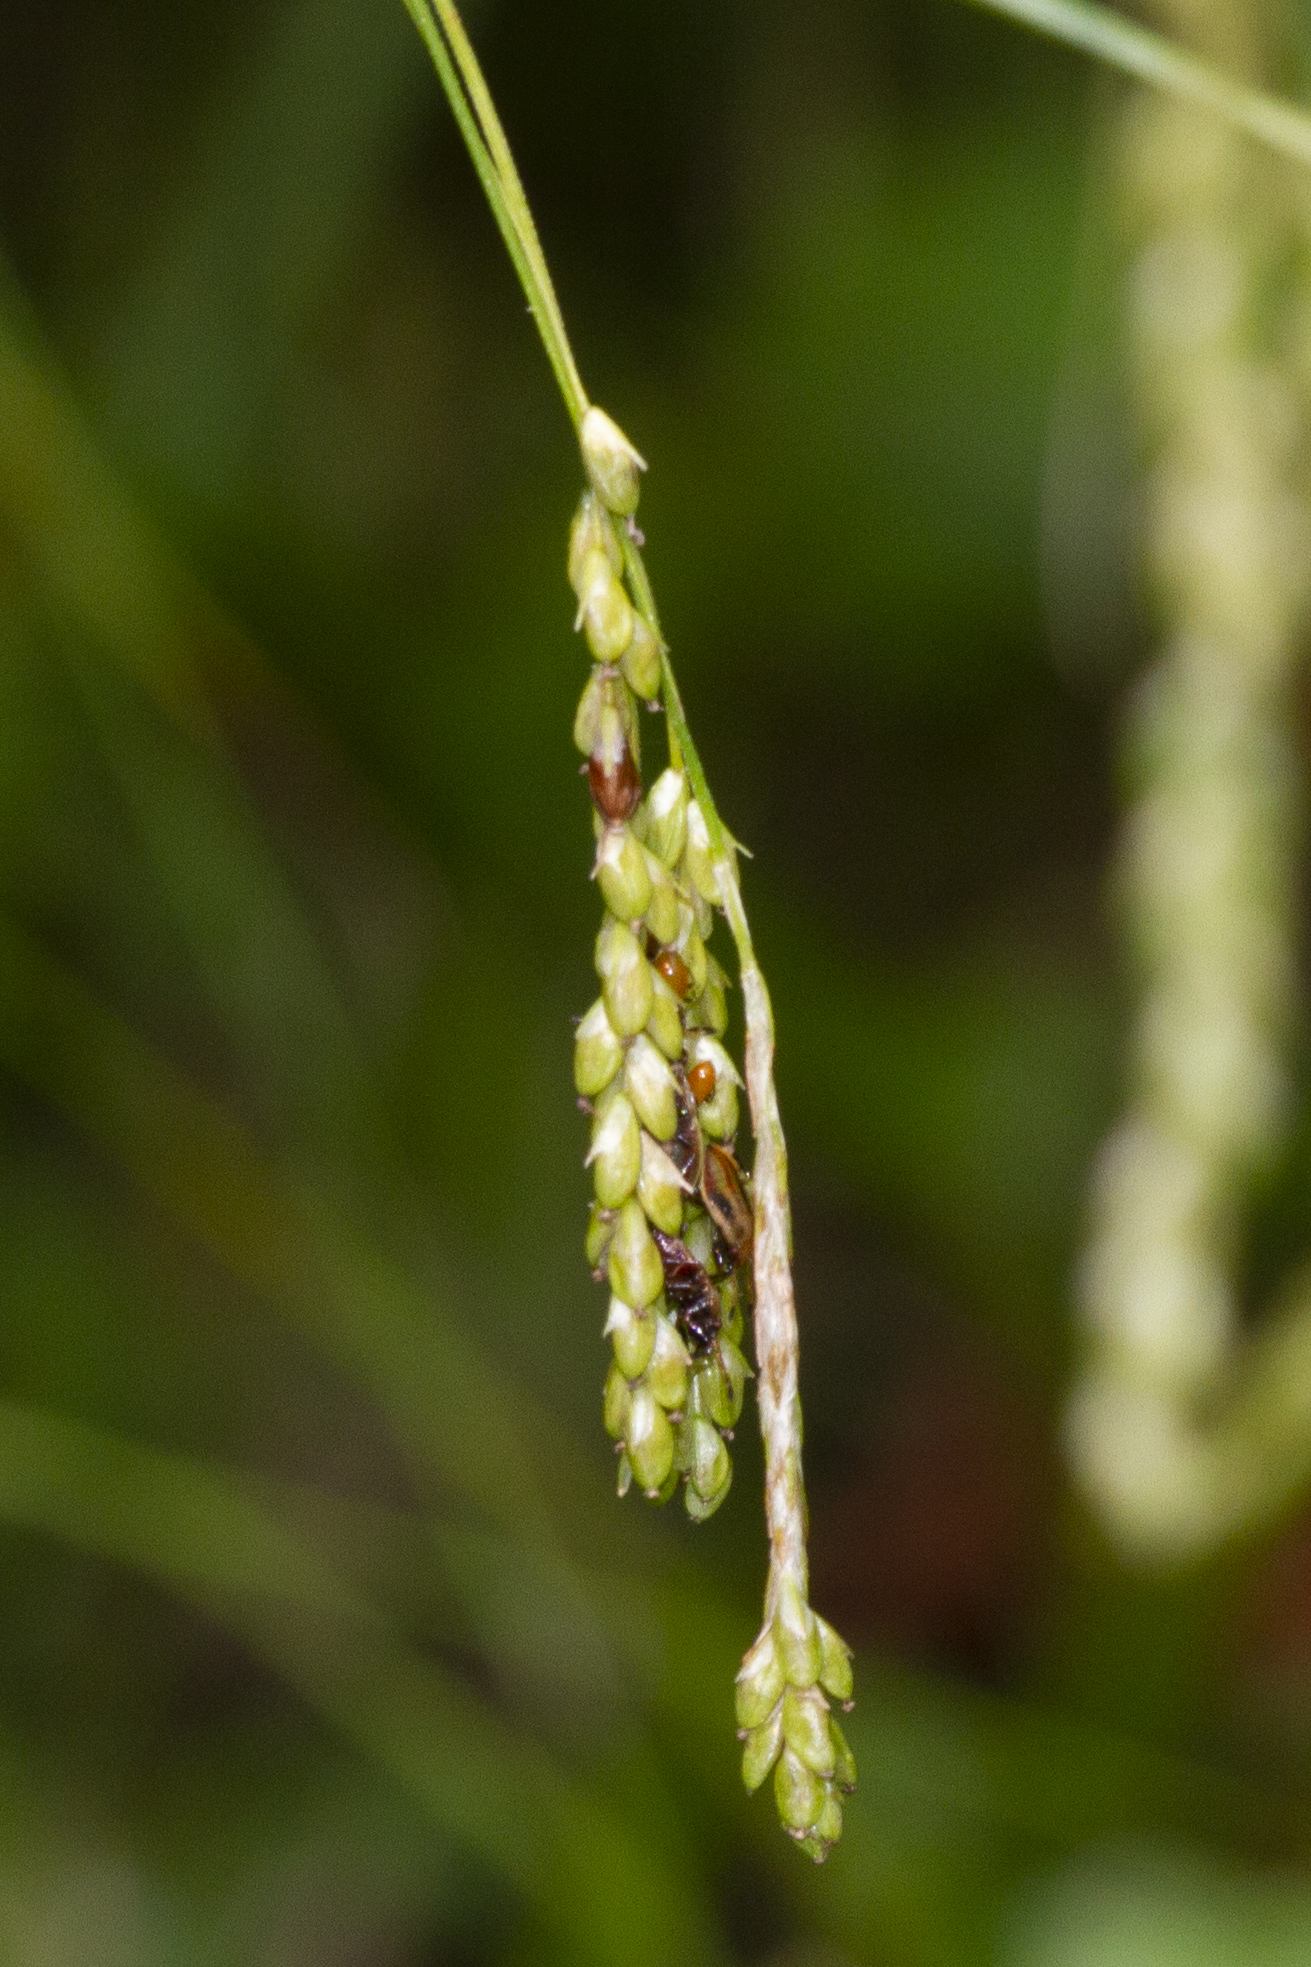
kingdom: Plantae
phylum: Tracheophyta
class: Liliopsida
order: Poales
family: Cyperaceae
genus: Carex
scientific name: Carex gracillima
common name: Graceful sedge
